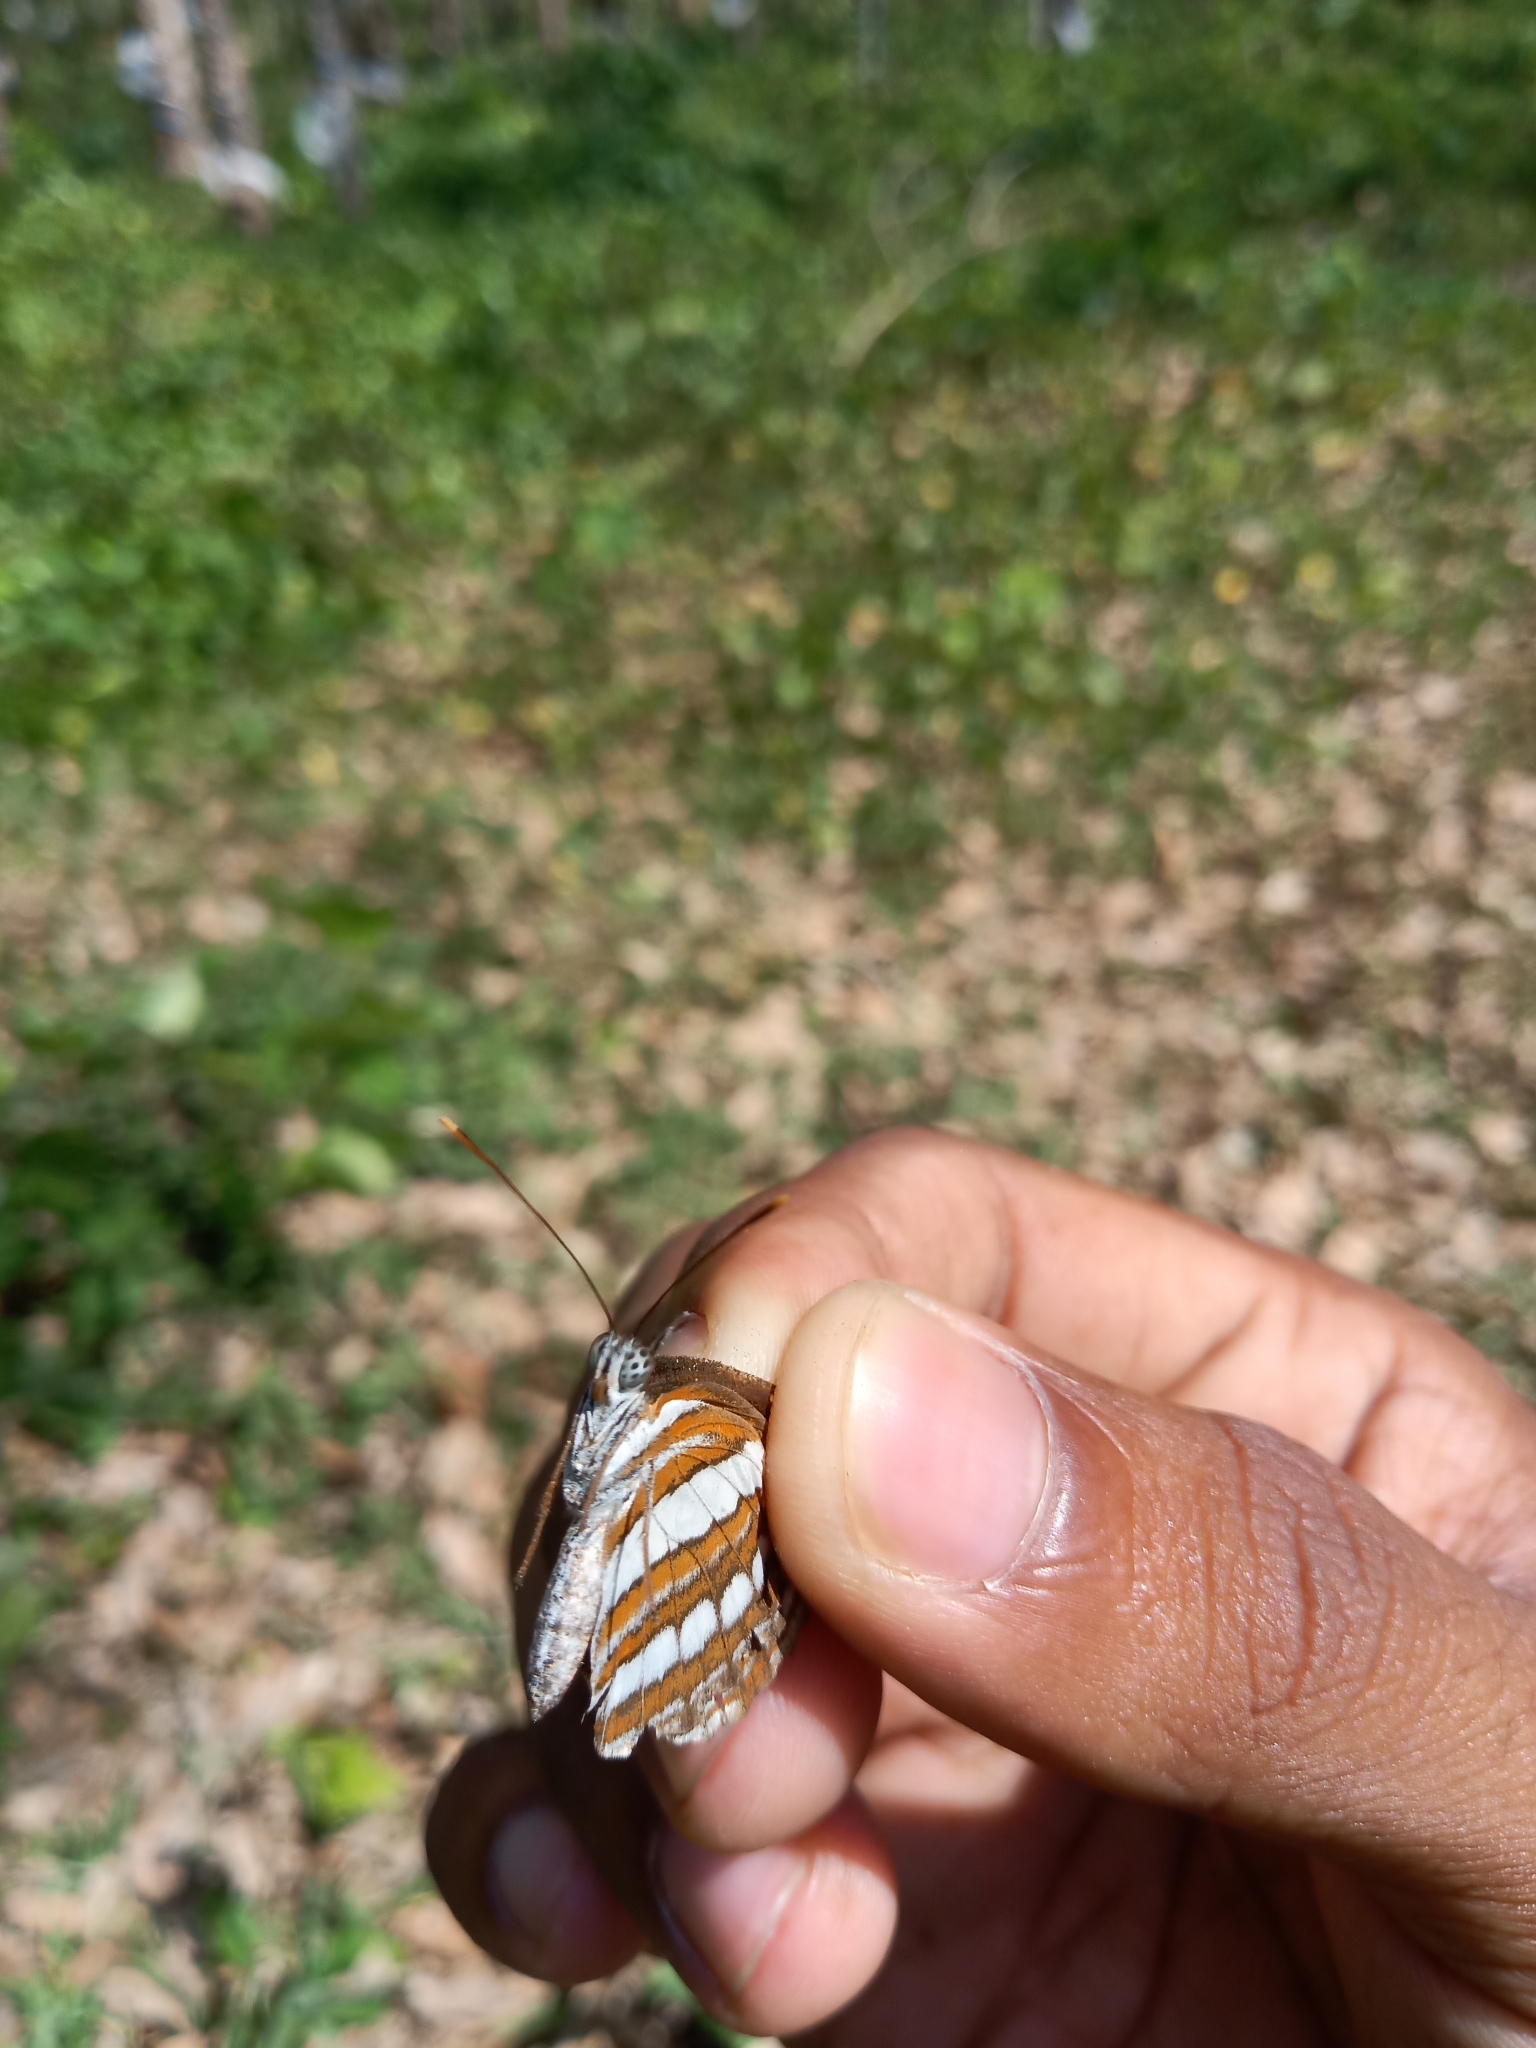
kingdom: Animalia
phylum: Arthropoda
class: Insecta
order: Lepidoptera
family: Nymphalidae
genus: Neptis
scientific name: Neptis hylas
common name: Common sailer
